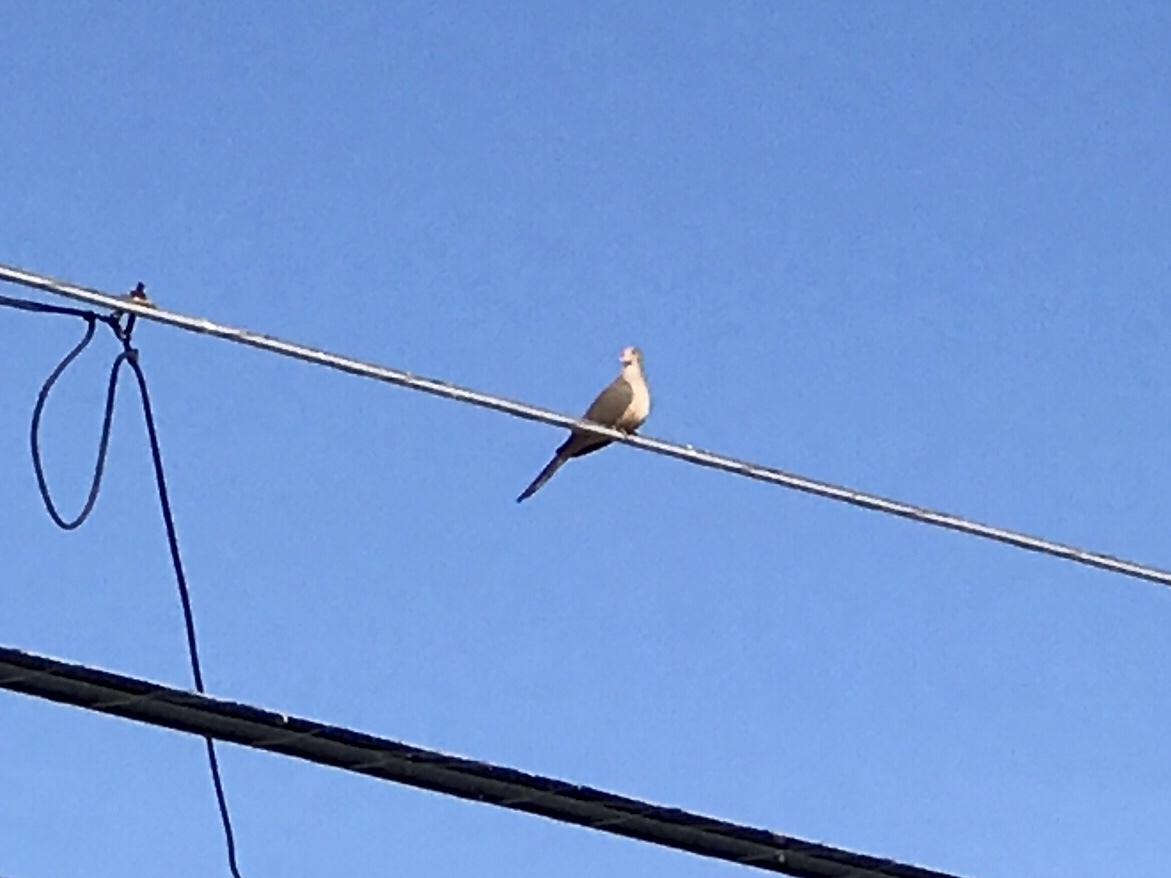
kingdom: Animalia
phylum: Chordata
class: Aves
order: Columbiformes
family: Columbidae
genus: Zenaida
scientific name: Zenaida macroura
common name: Mourning dove
